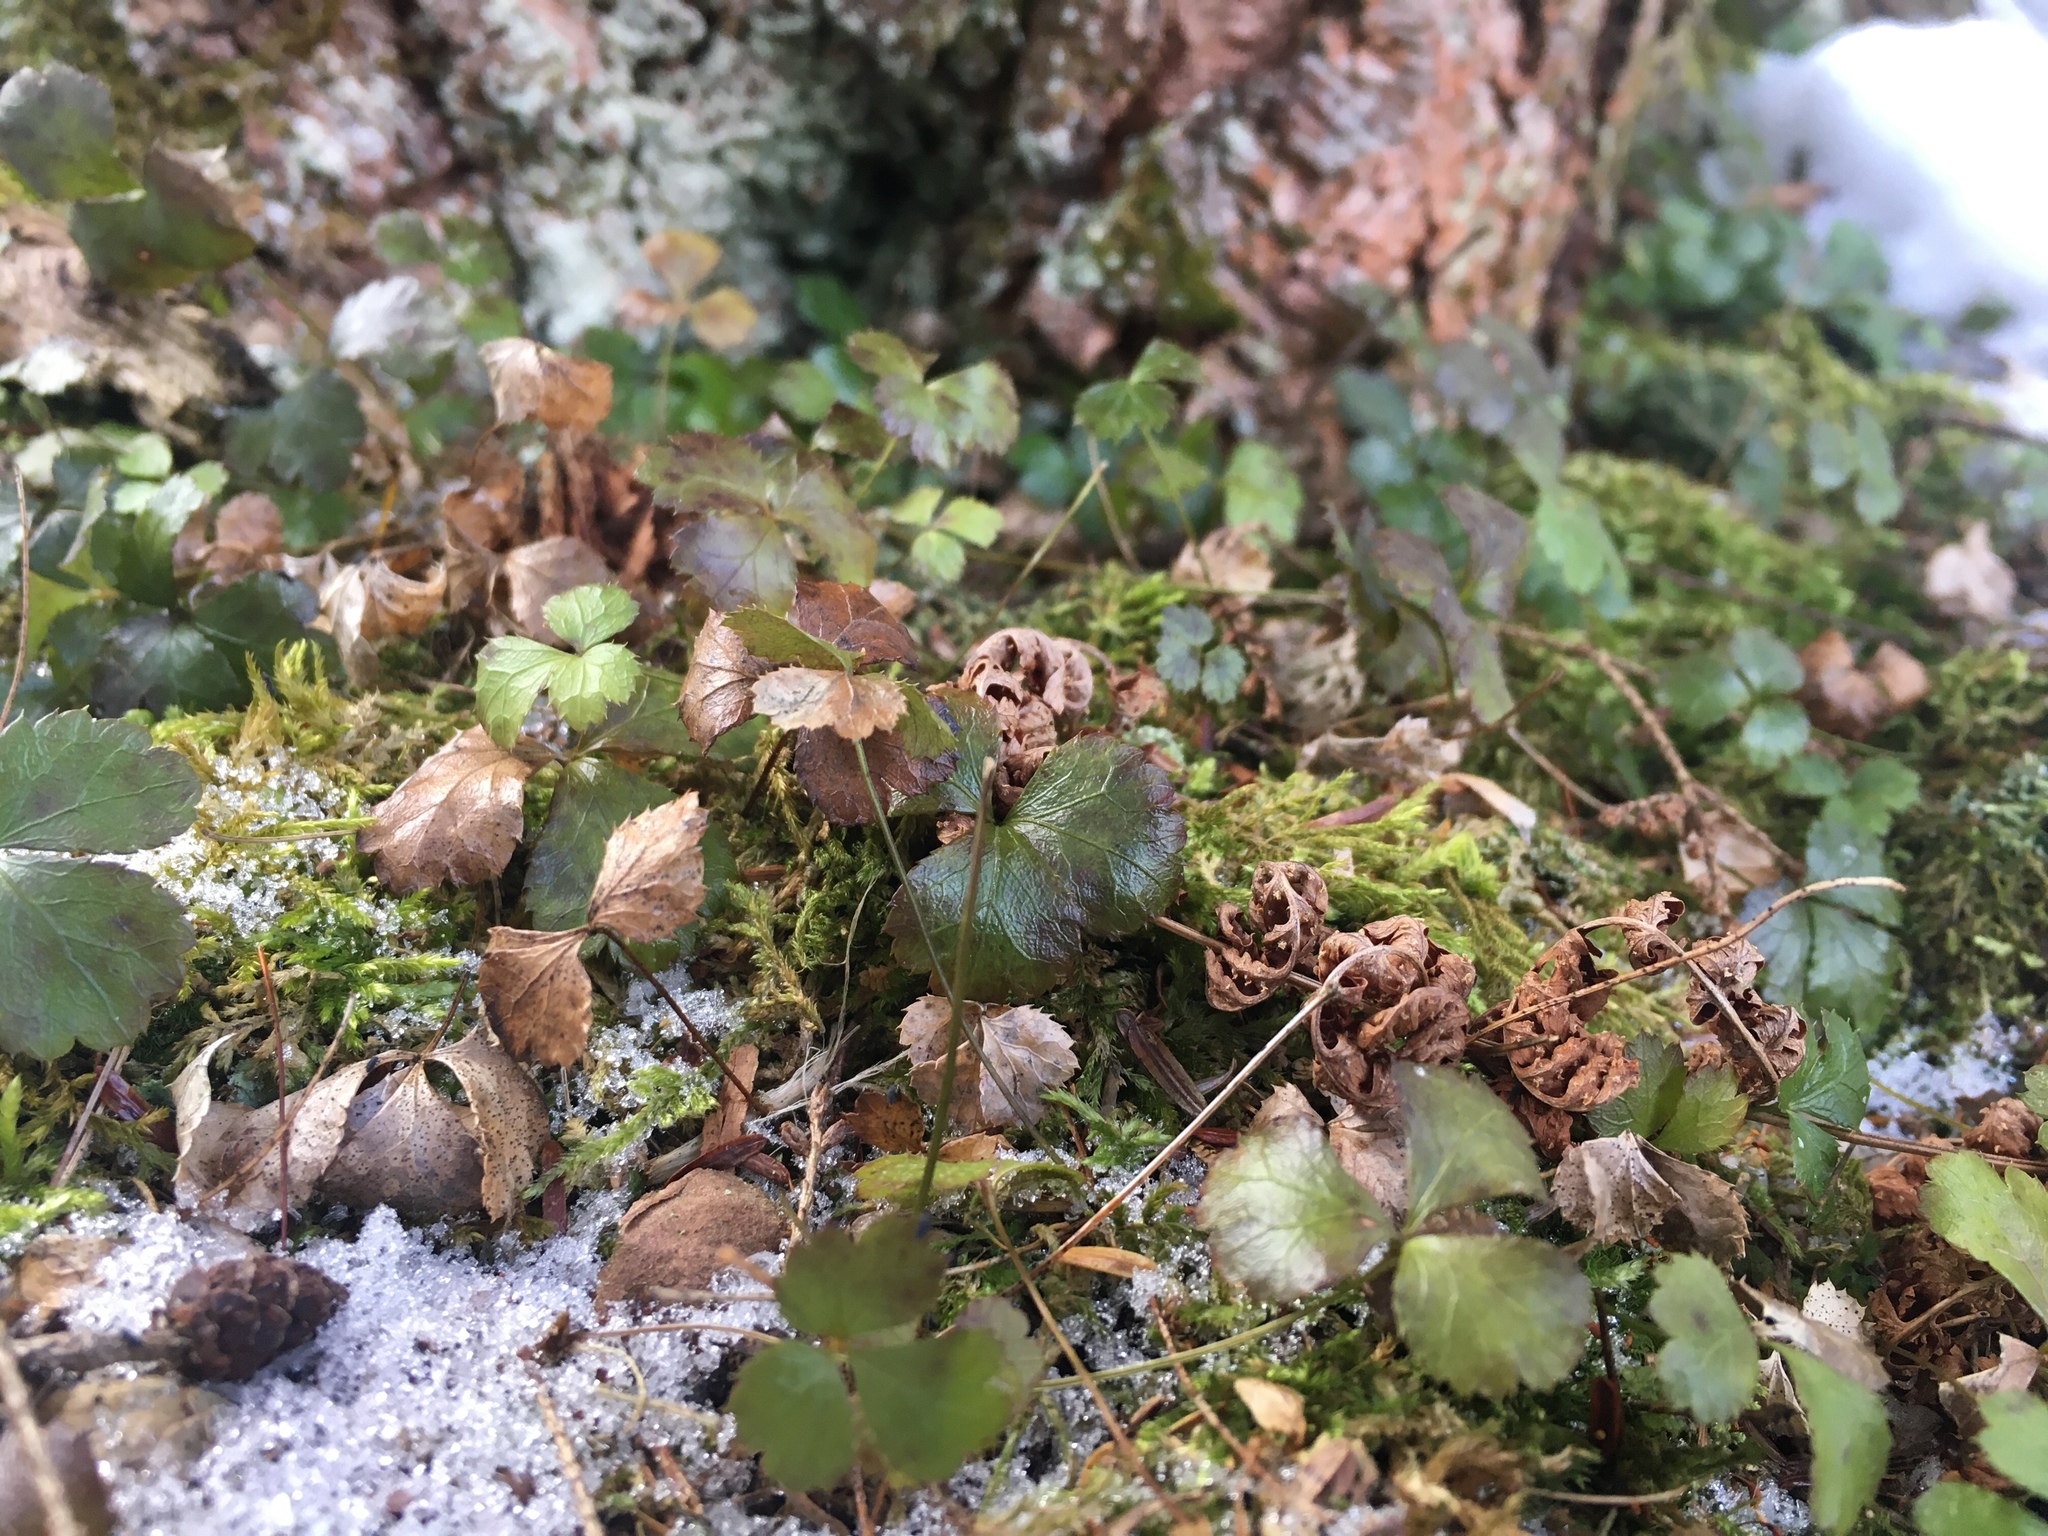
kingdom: Plantae
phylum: Tracheophyta
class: Magnoliopsida
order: Ranunculales
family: Ranunculaceae
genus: Coptis
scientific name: Coptis trifolia
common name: Canker-root
